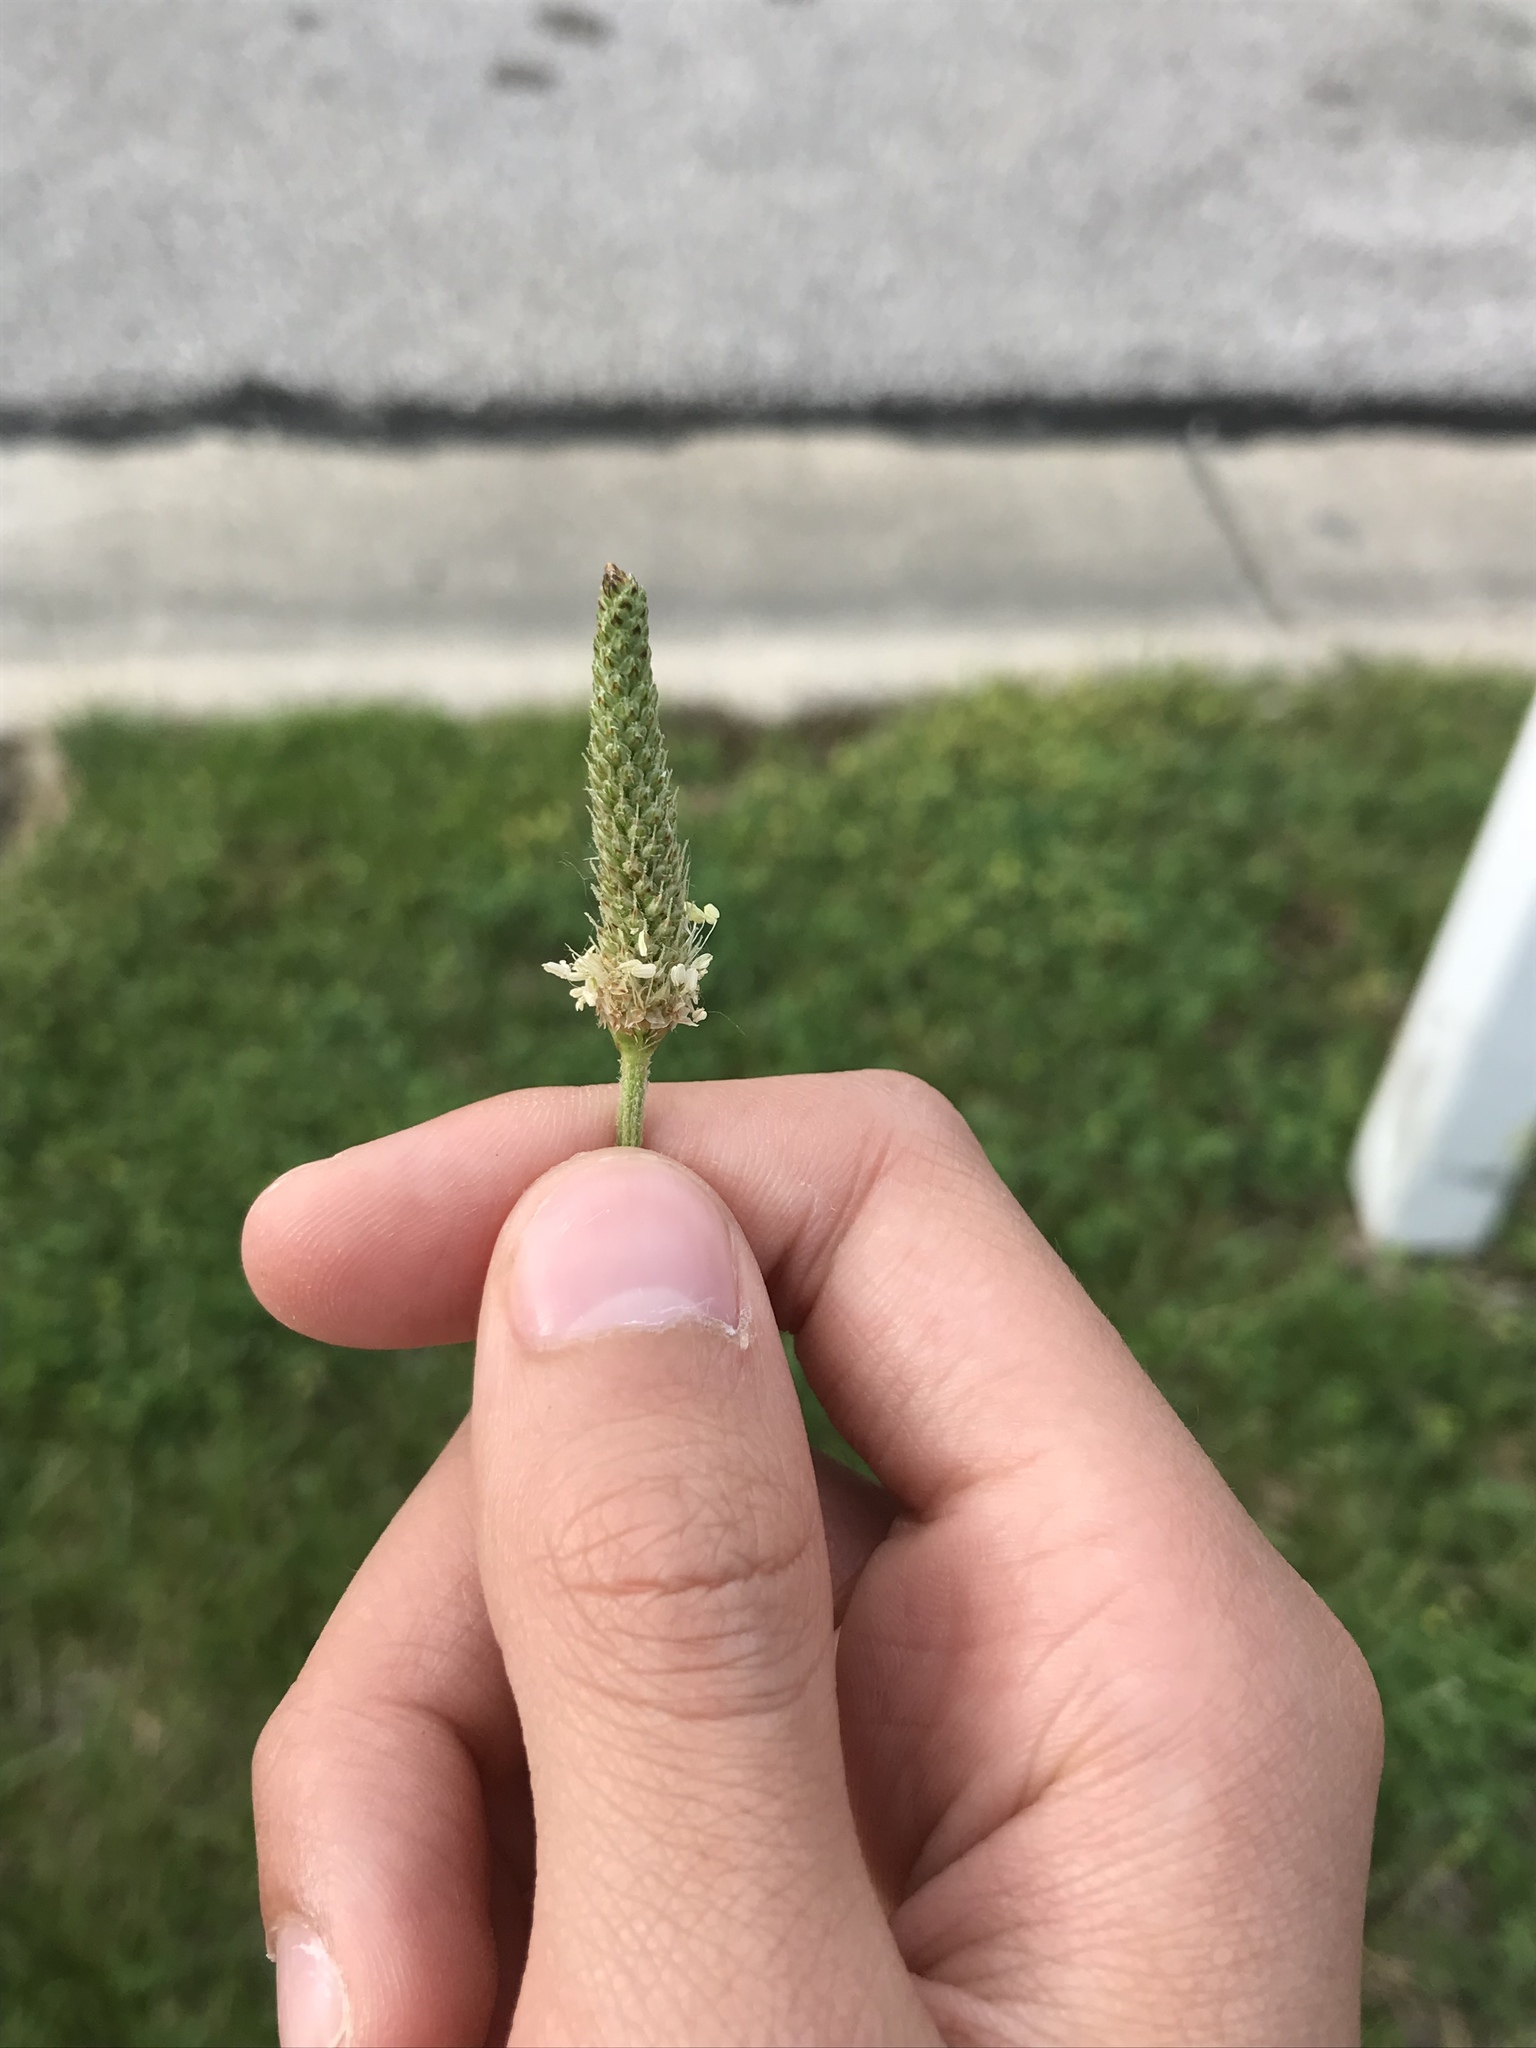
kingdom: Plantae
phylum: Tracheophyta
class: Magnoliopsida
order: Lamiales
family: Plantaginaceae
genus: Plantago
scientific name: Plantago lanceolata
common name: Ribwort plantain
